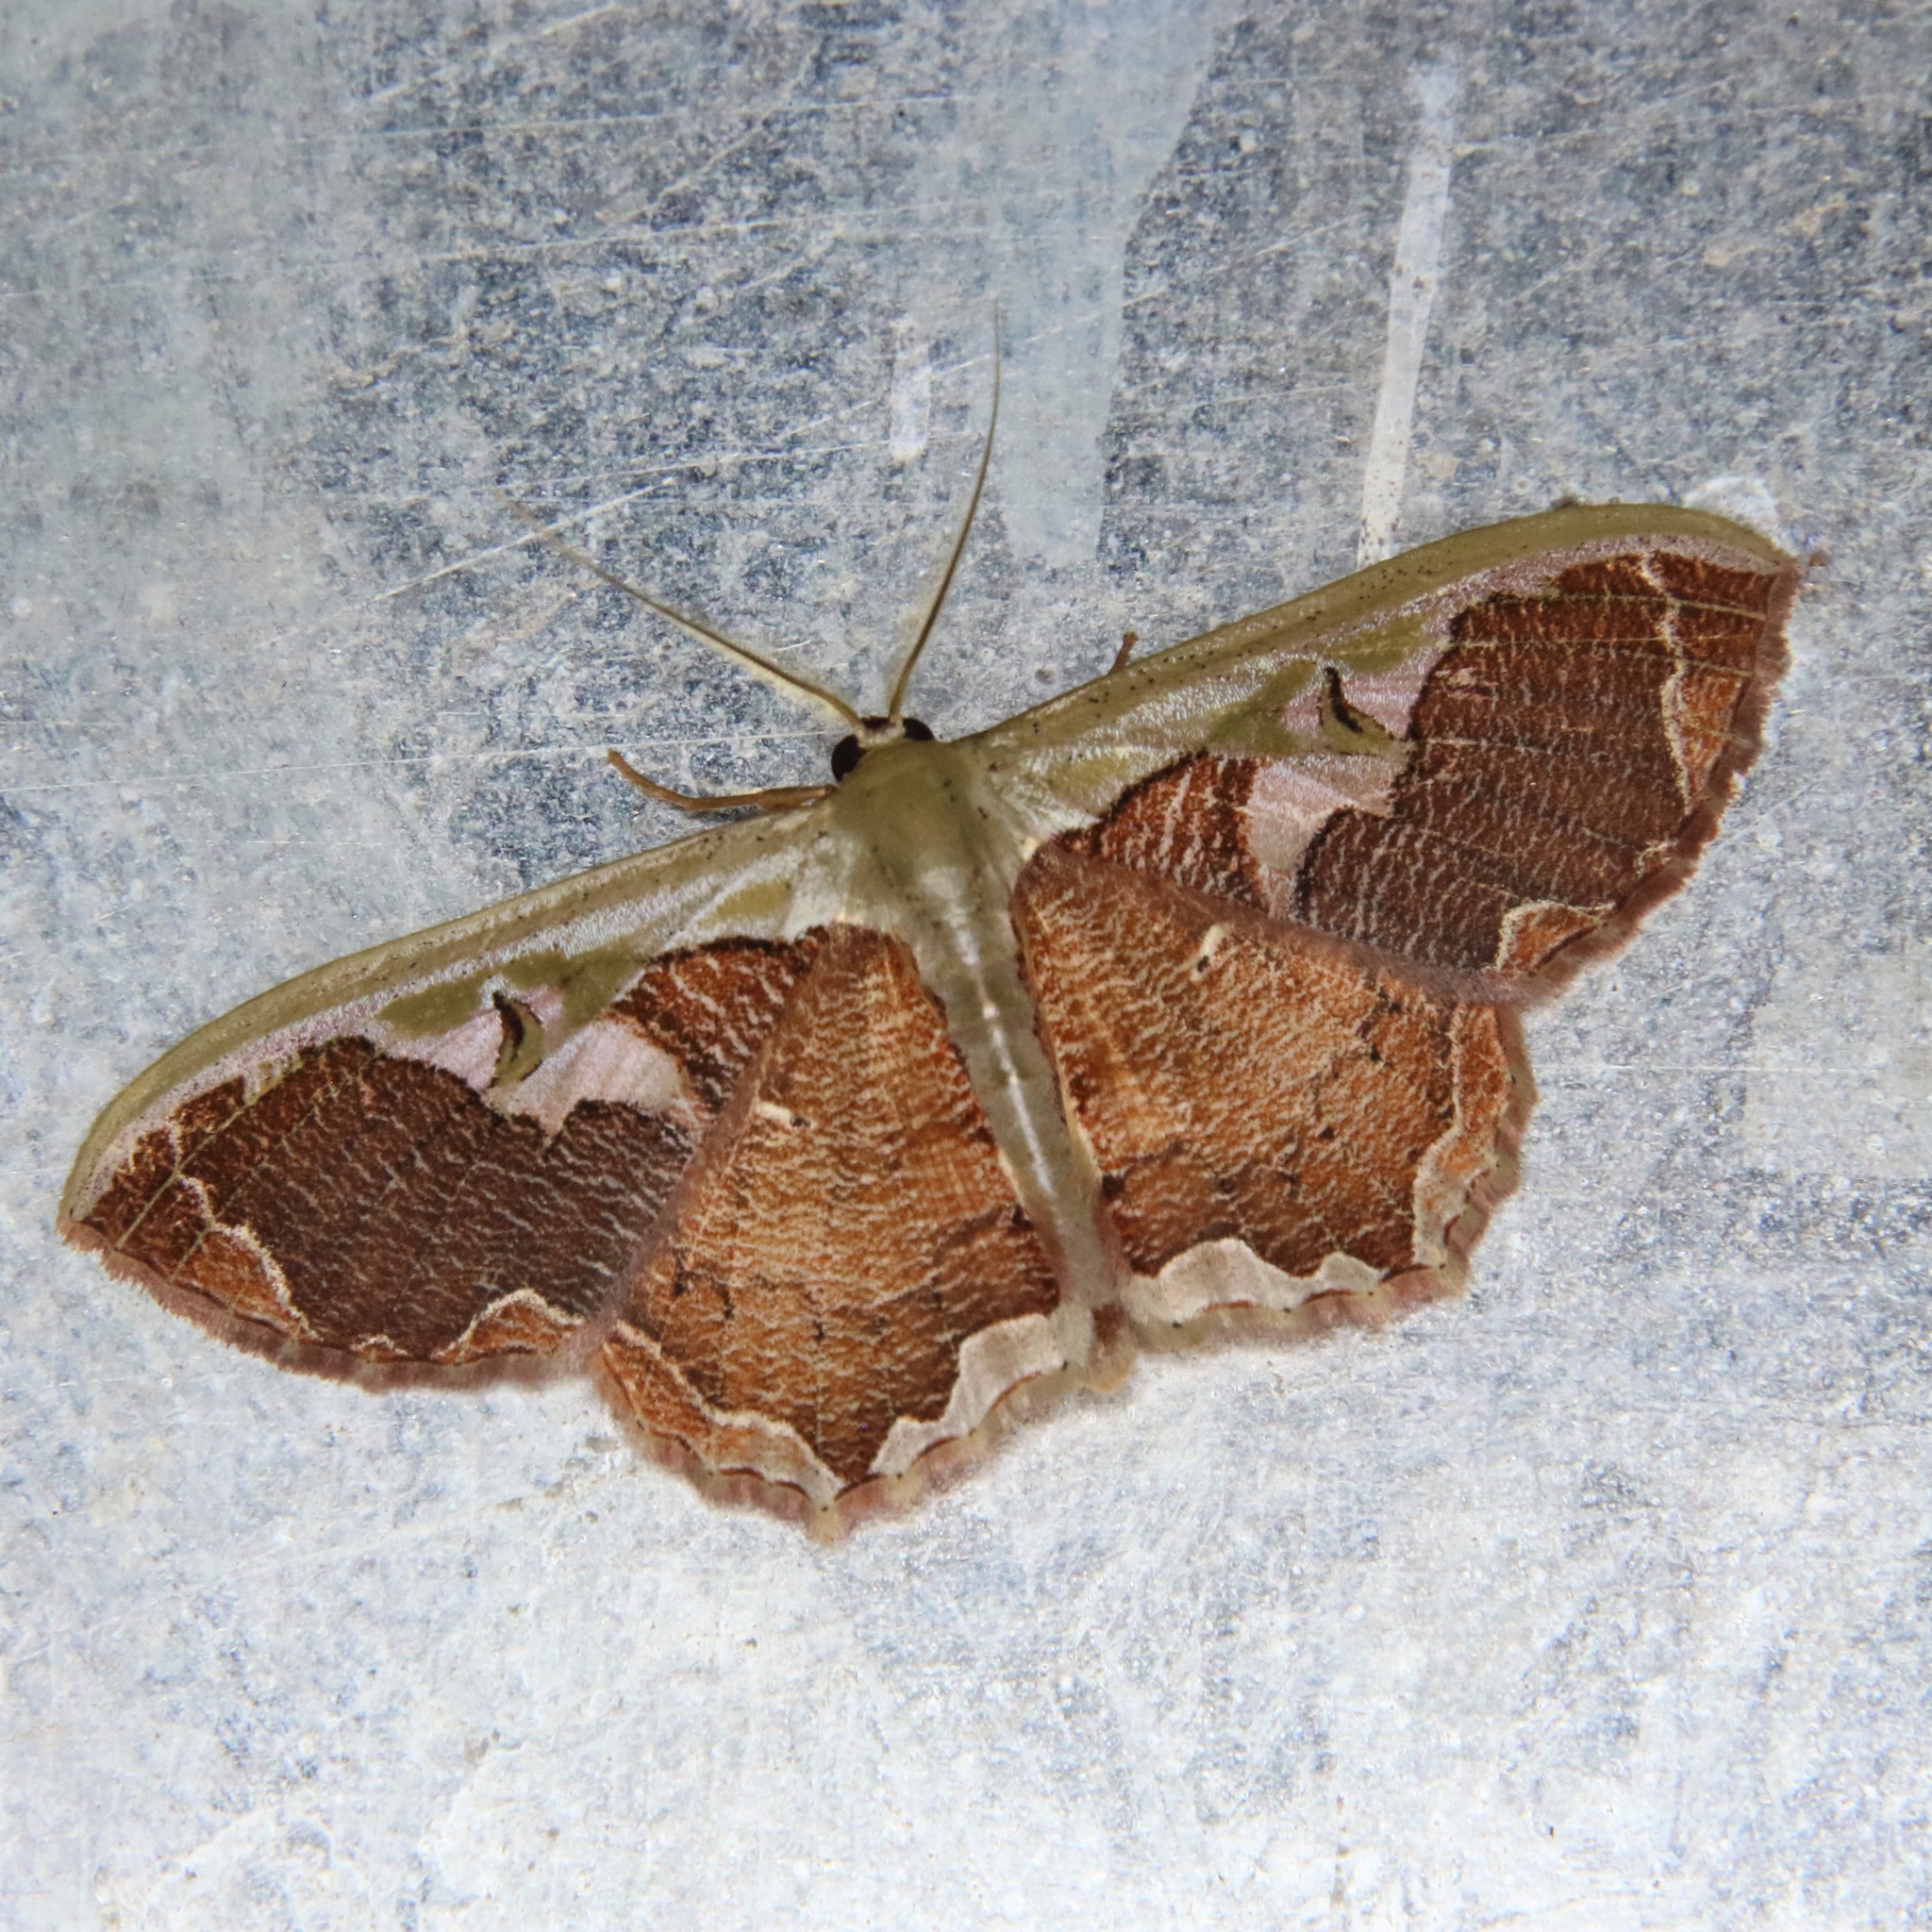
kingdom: Animalia
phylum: Arthropoda
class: Insecta
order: Lepidoptera
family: Geometridae
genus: Zythos
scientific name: Zythos turbata
